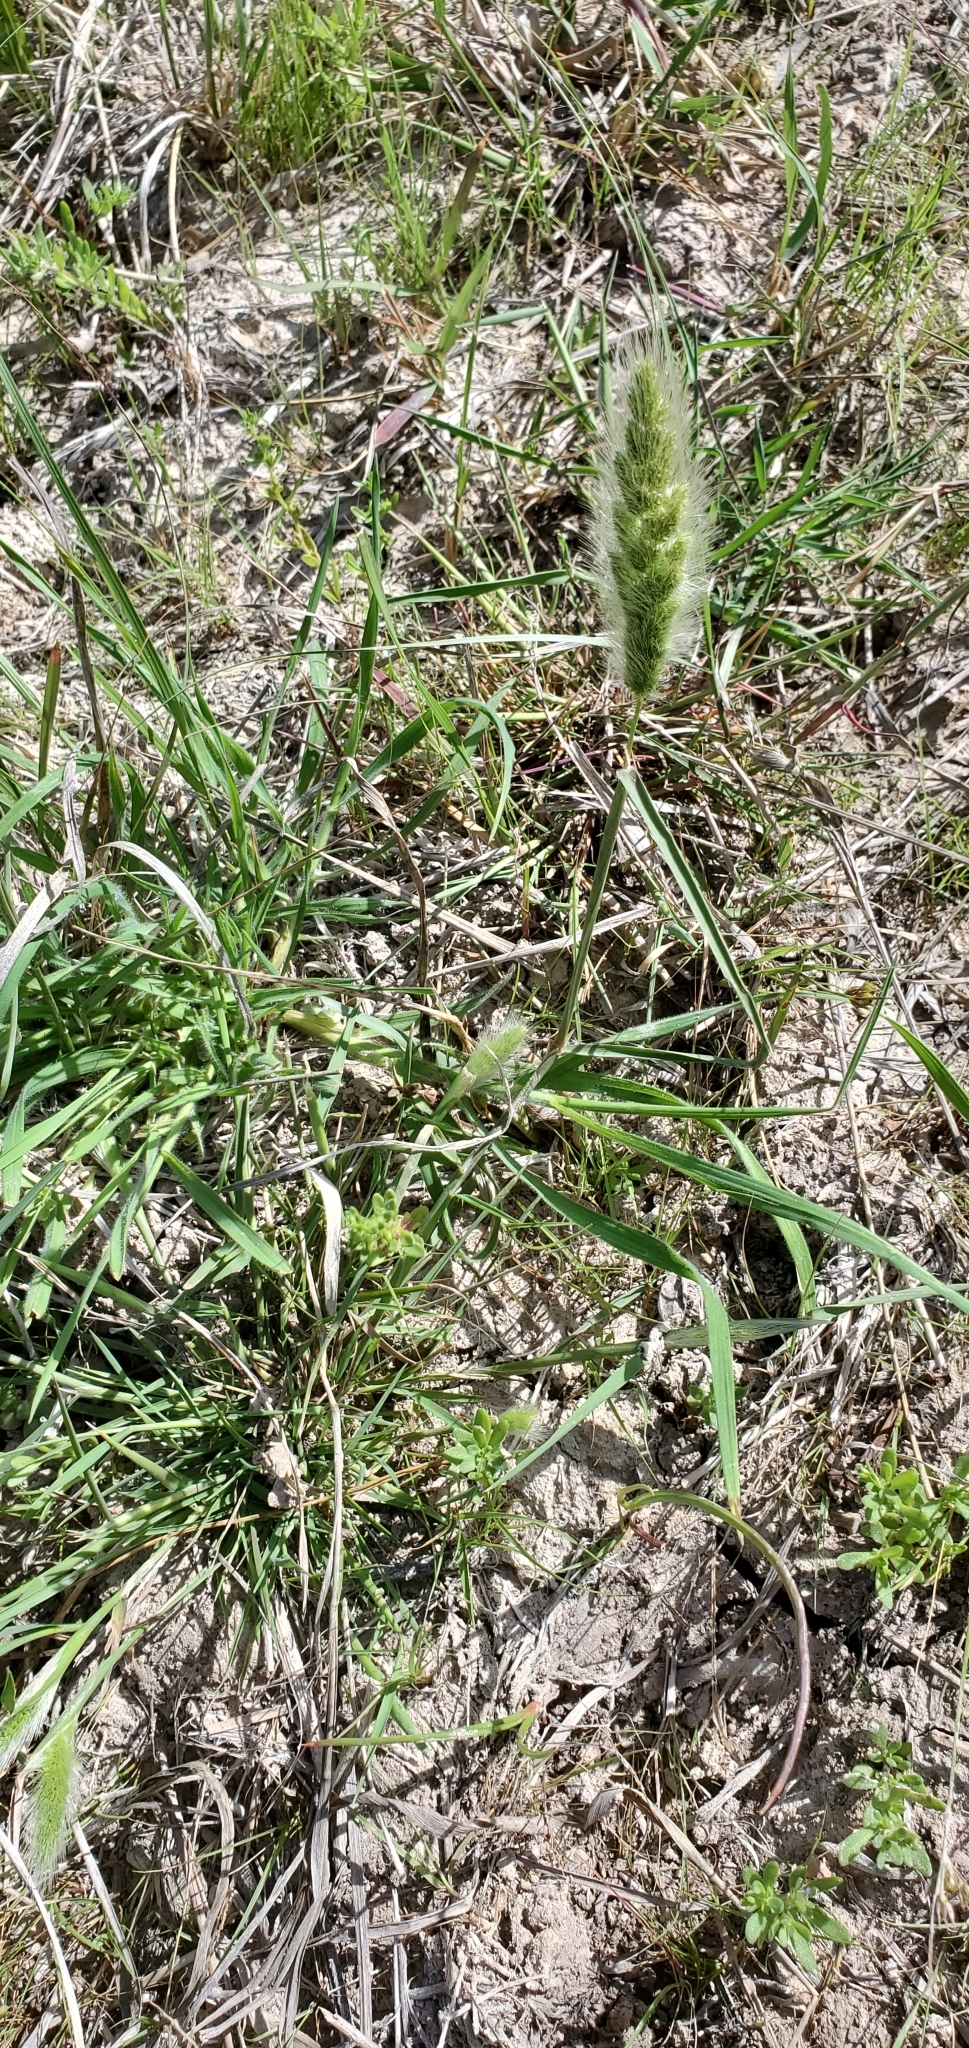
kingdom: Plantae
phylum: Tracheophyta
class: Liliopsida
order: Poales
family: Poaceae
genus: Polypogon
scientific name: Polypogon monspeliensis
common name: Annual rabbitsfoot grass
